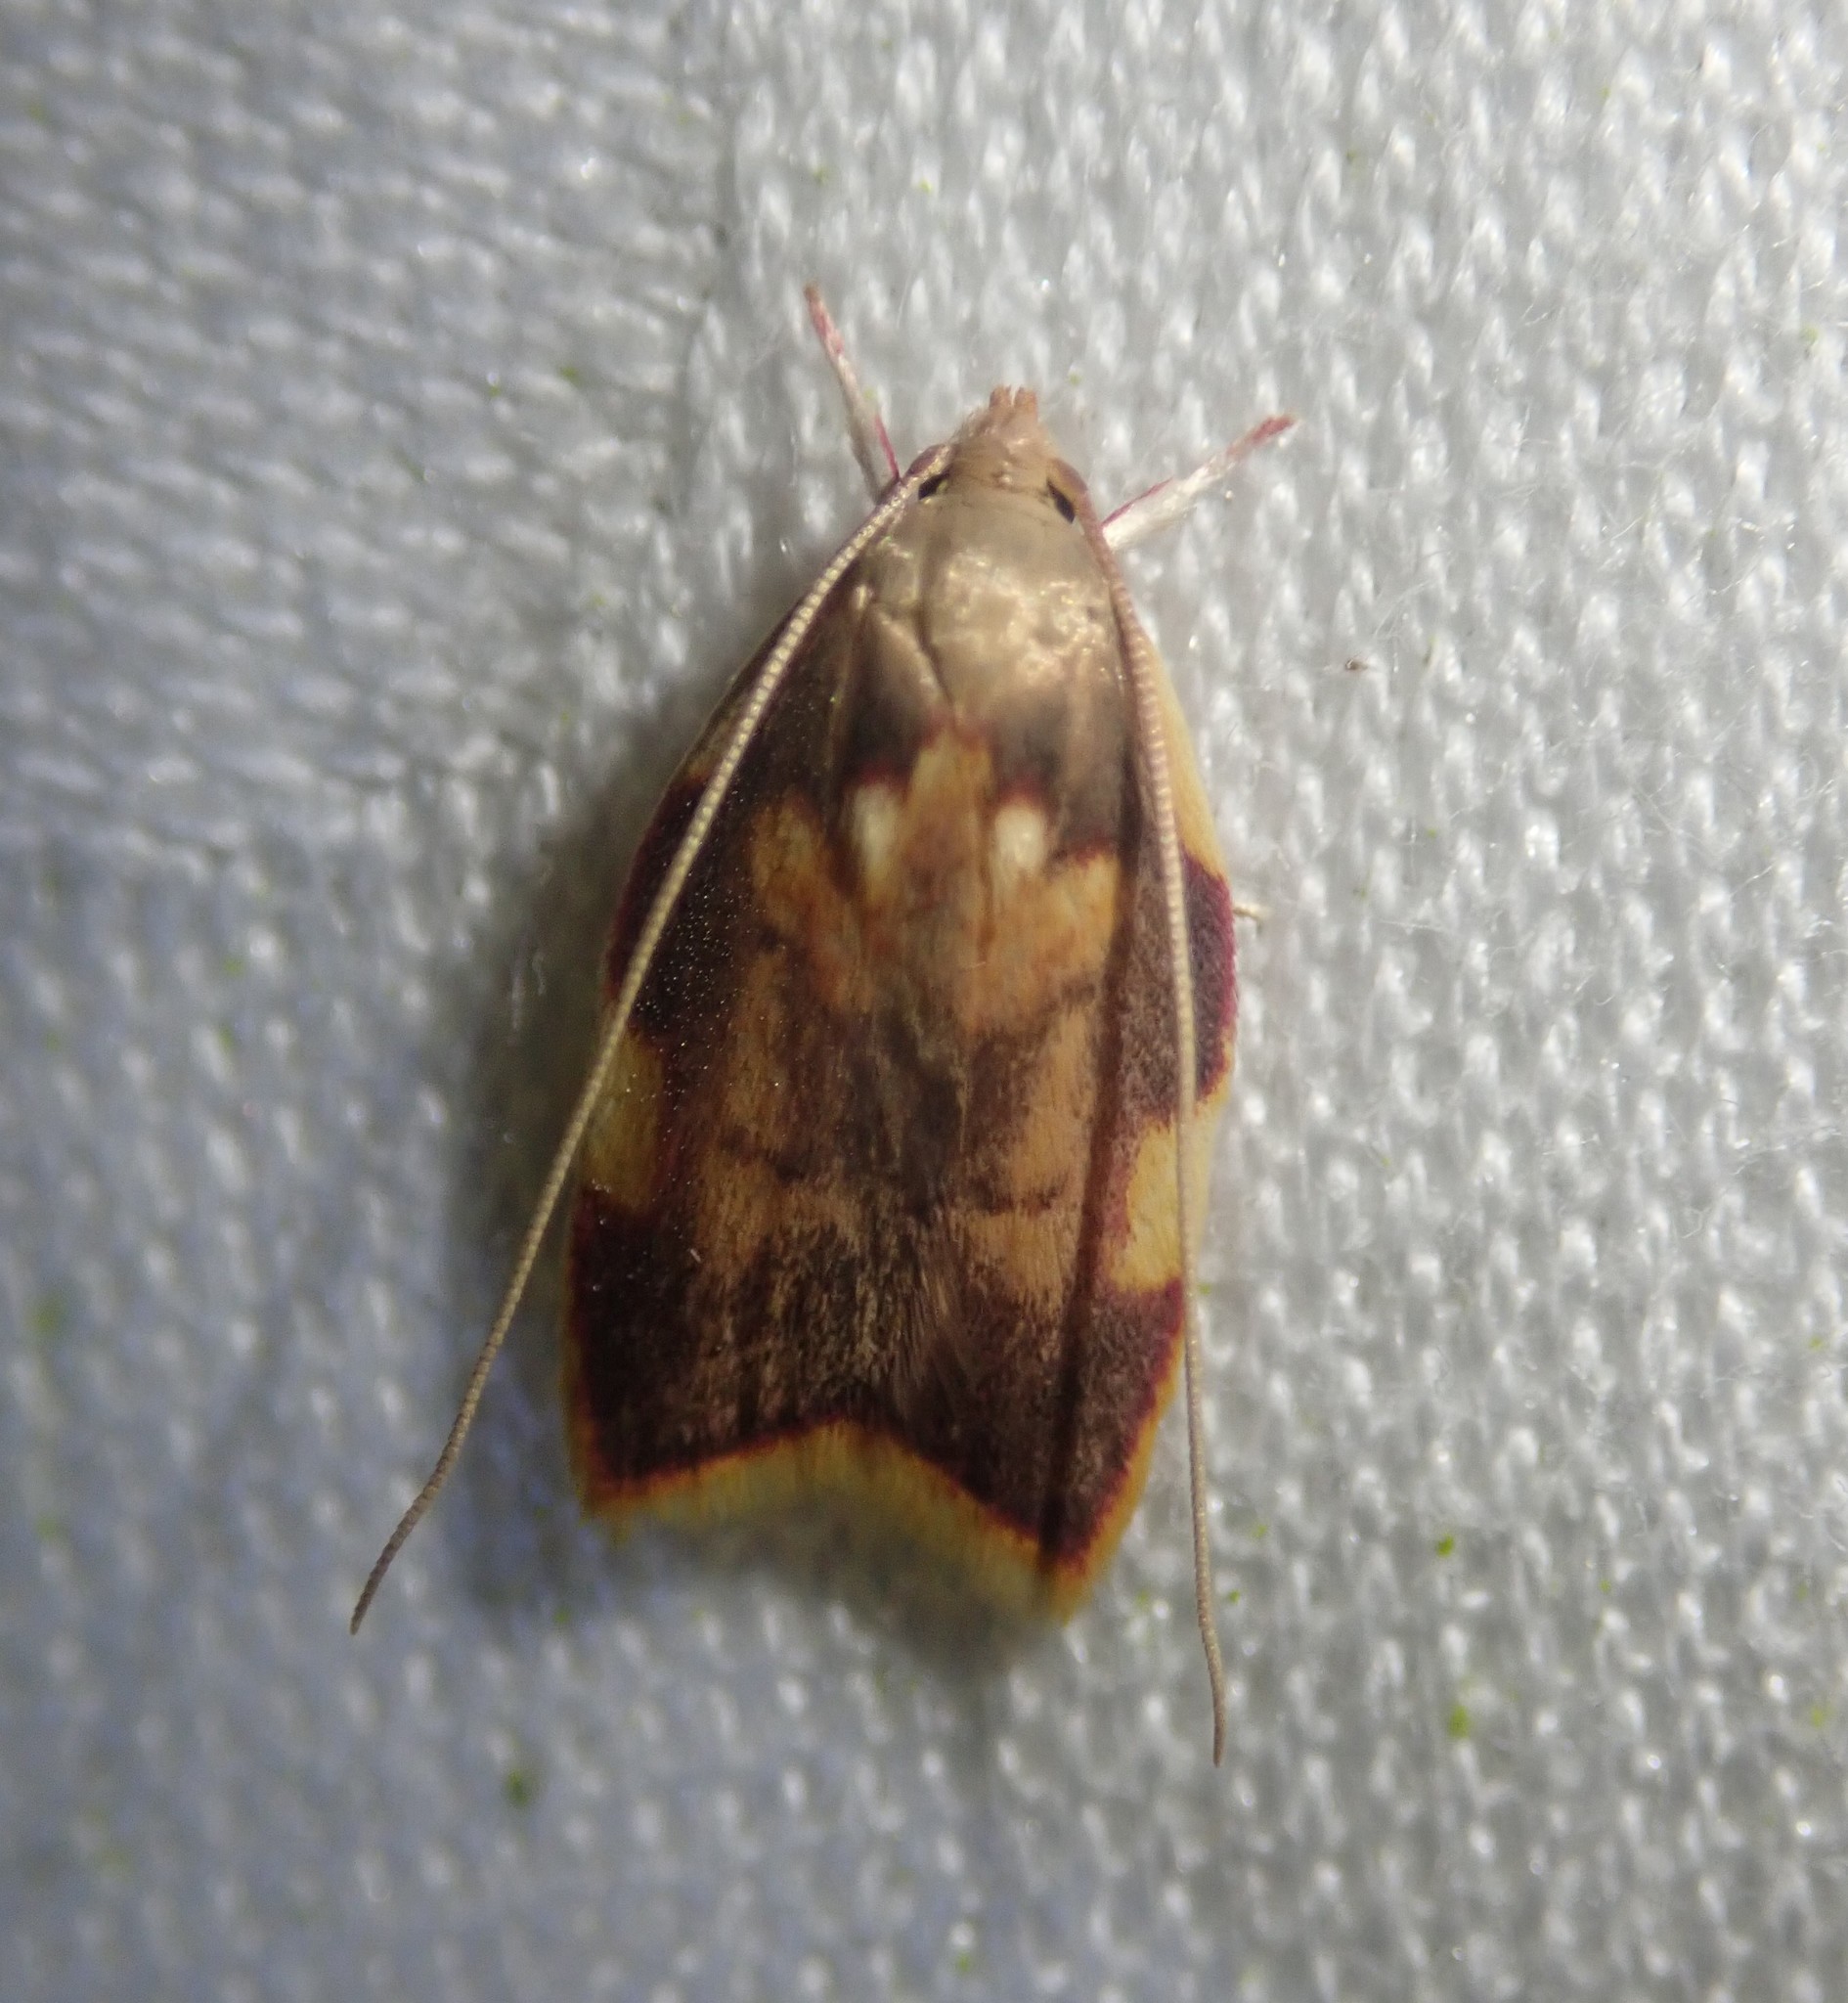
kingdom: Animalia
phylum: Arthropoda
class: Insecta
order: Lepidoptera
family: Peleopodidae
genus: Carcina
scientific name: Carcina quercana
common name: Moth
